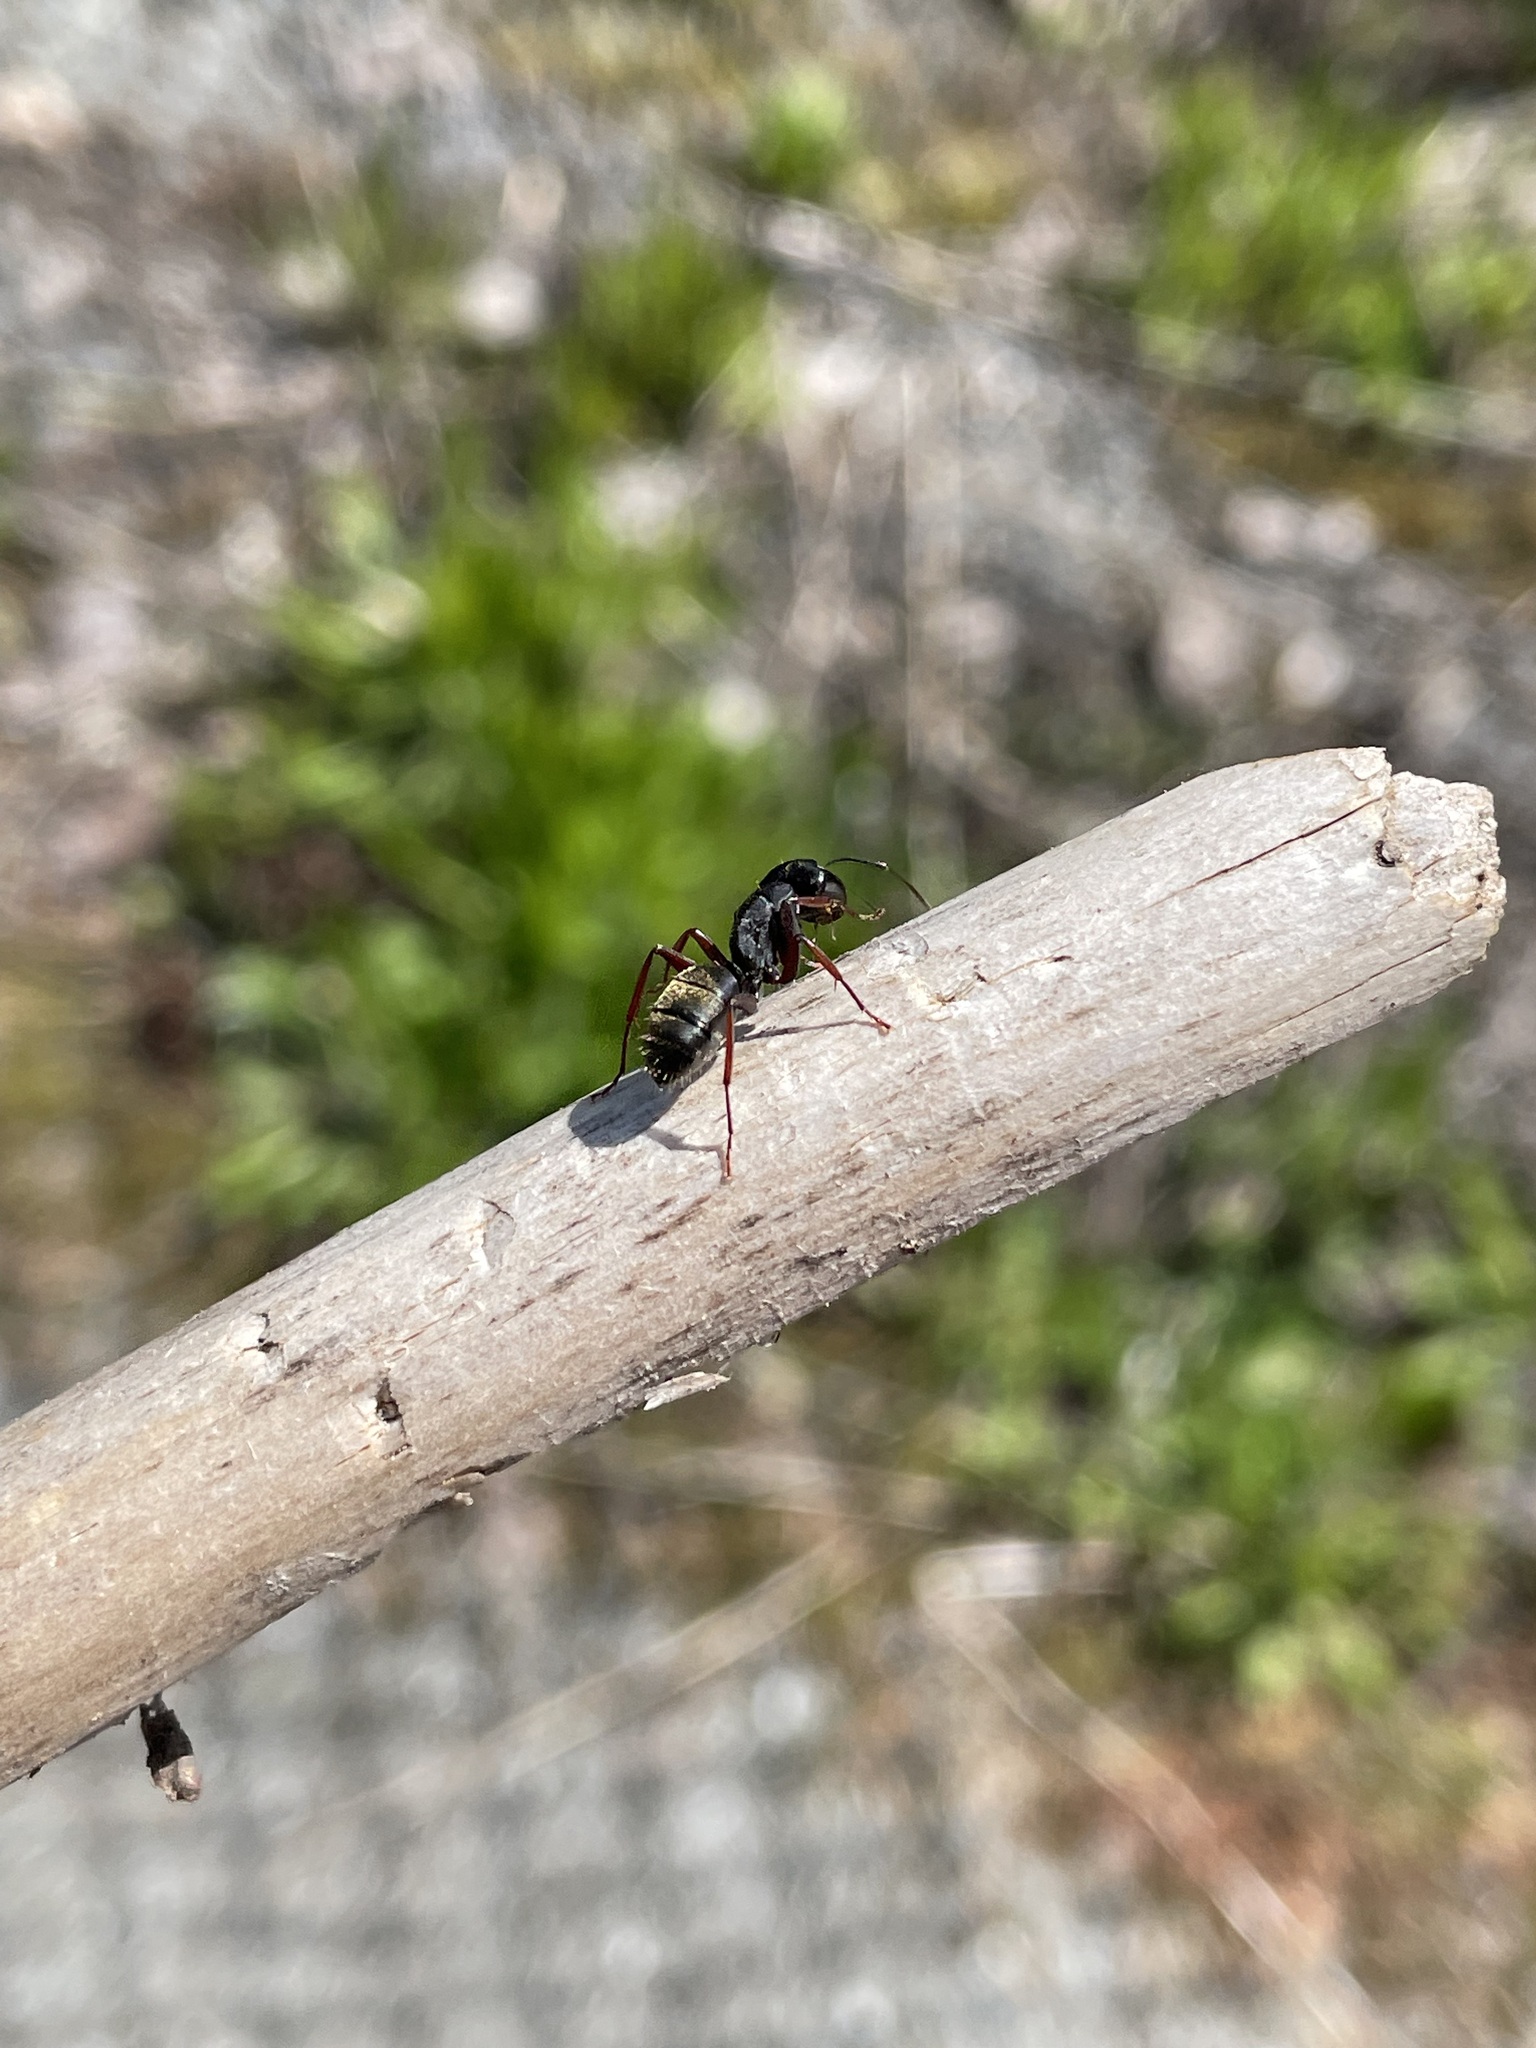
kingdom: Animalia
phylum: Arthropoda
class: Insecta
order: Hymenoptera
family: Formicidae
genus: Camponotus
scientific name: Camponotus modoc
